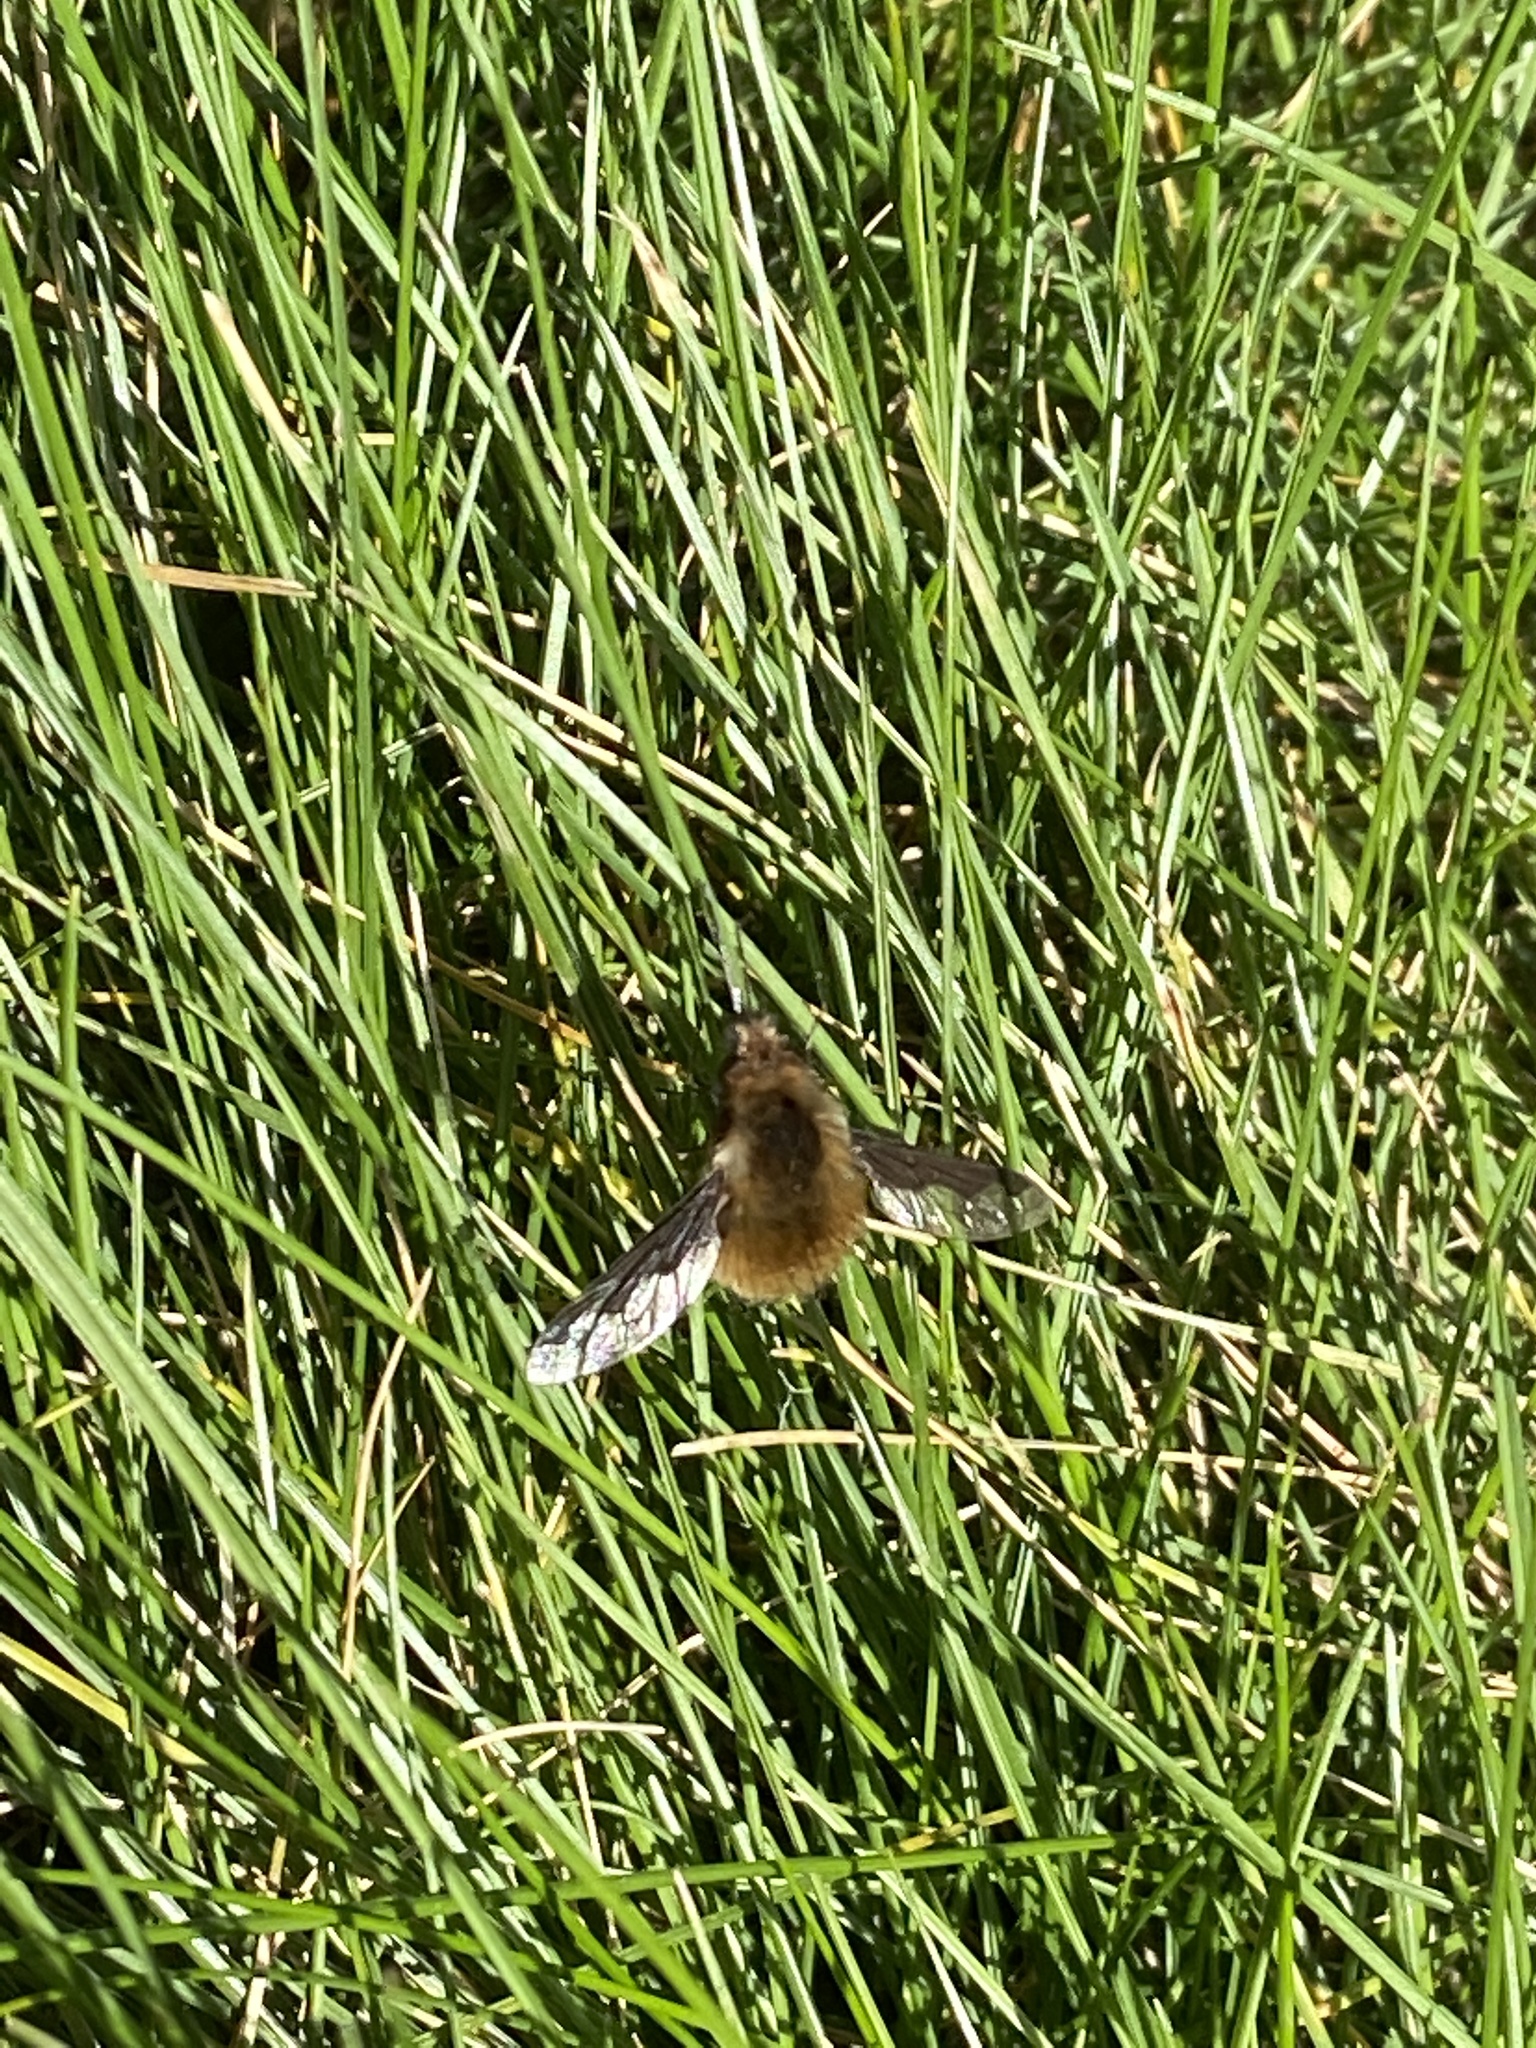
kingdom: Animalia
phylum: Arthropoda
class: Insecta
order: Diptera
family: Bombyliidae
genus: Bombylius
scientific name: Bombylius major
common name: Bee fly
